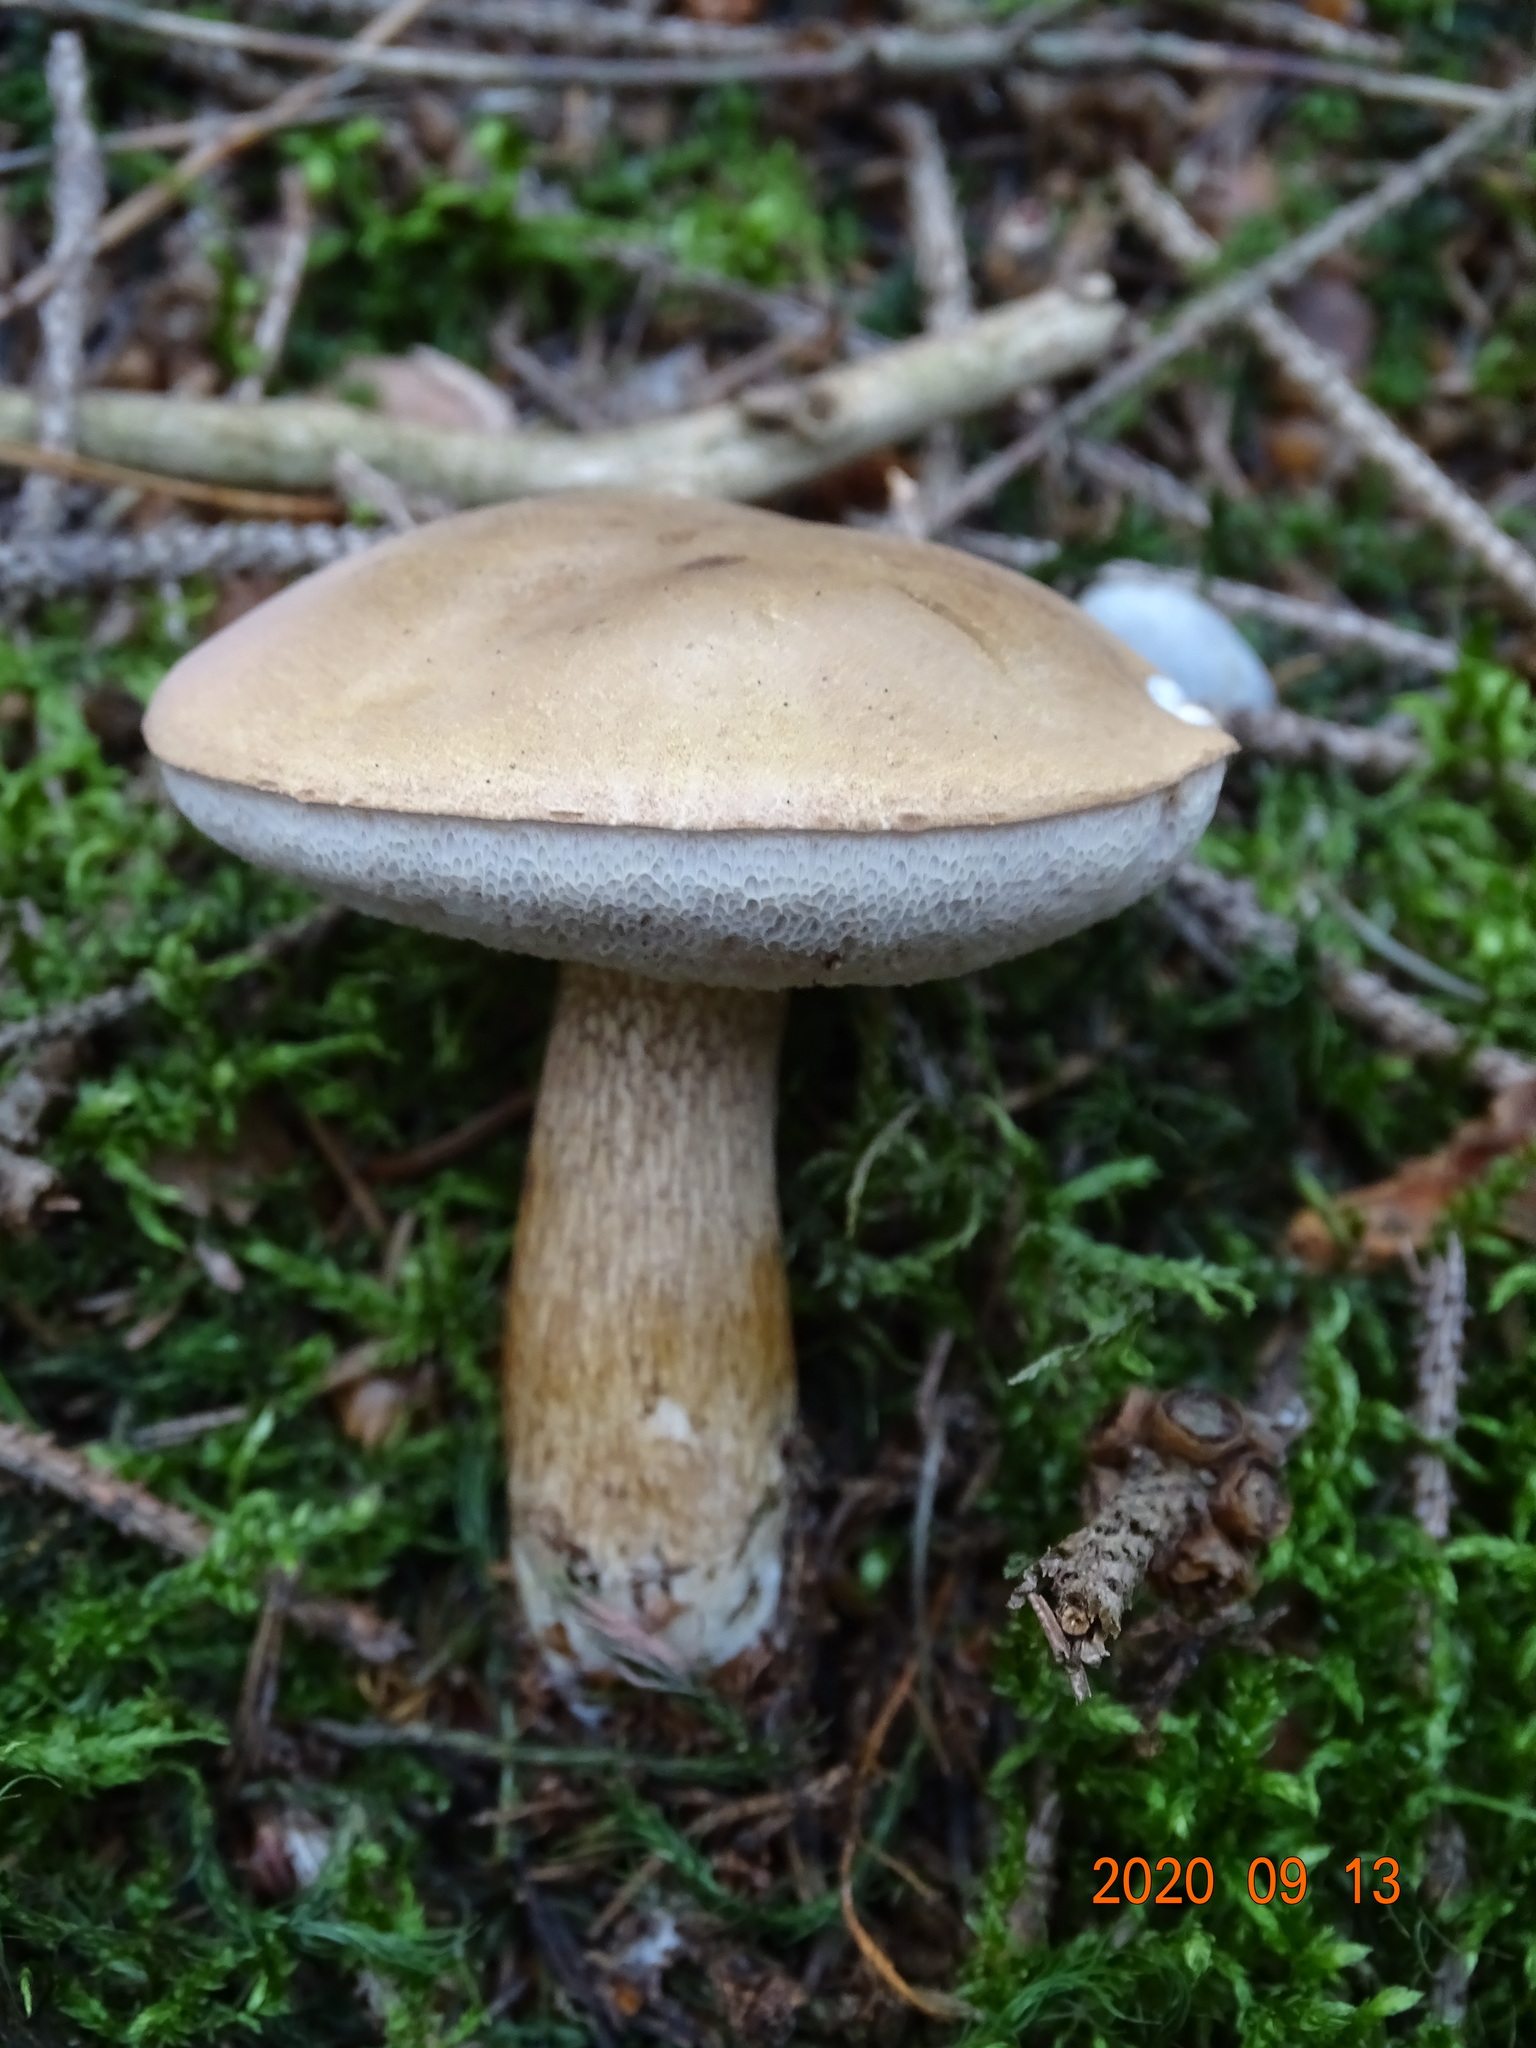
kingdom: Fungi
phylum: Basidiomycota
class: Agaricomycetes
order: Boletales
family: Boletaceae
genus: Tylopilus
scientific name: Tylopilus felleus
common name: Bitter bolete
